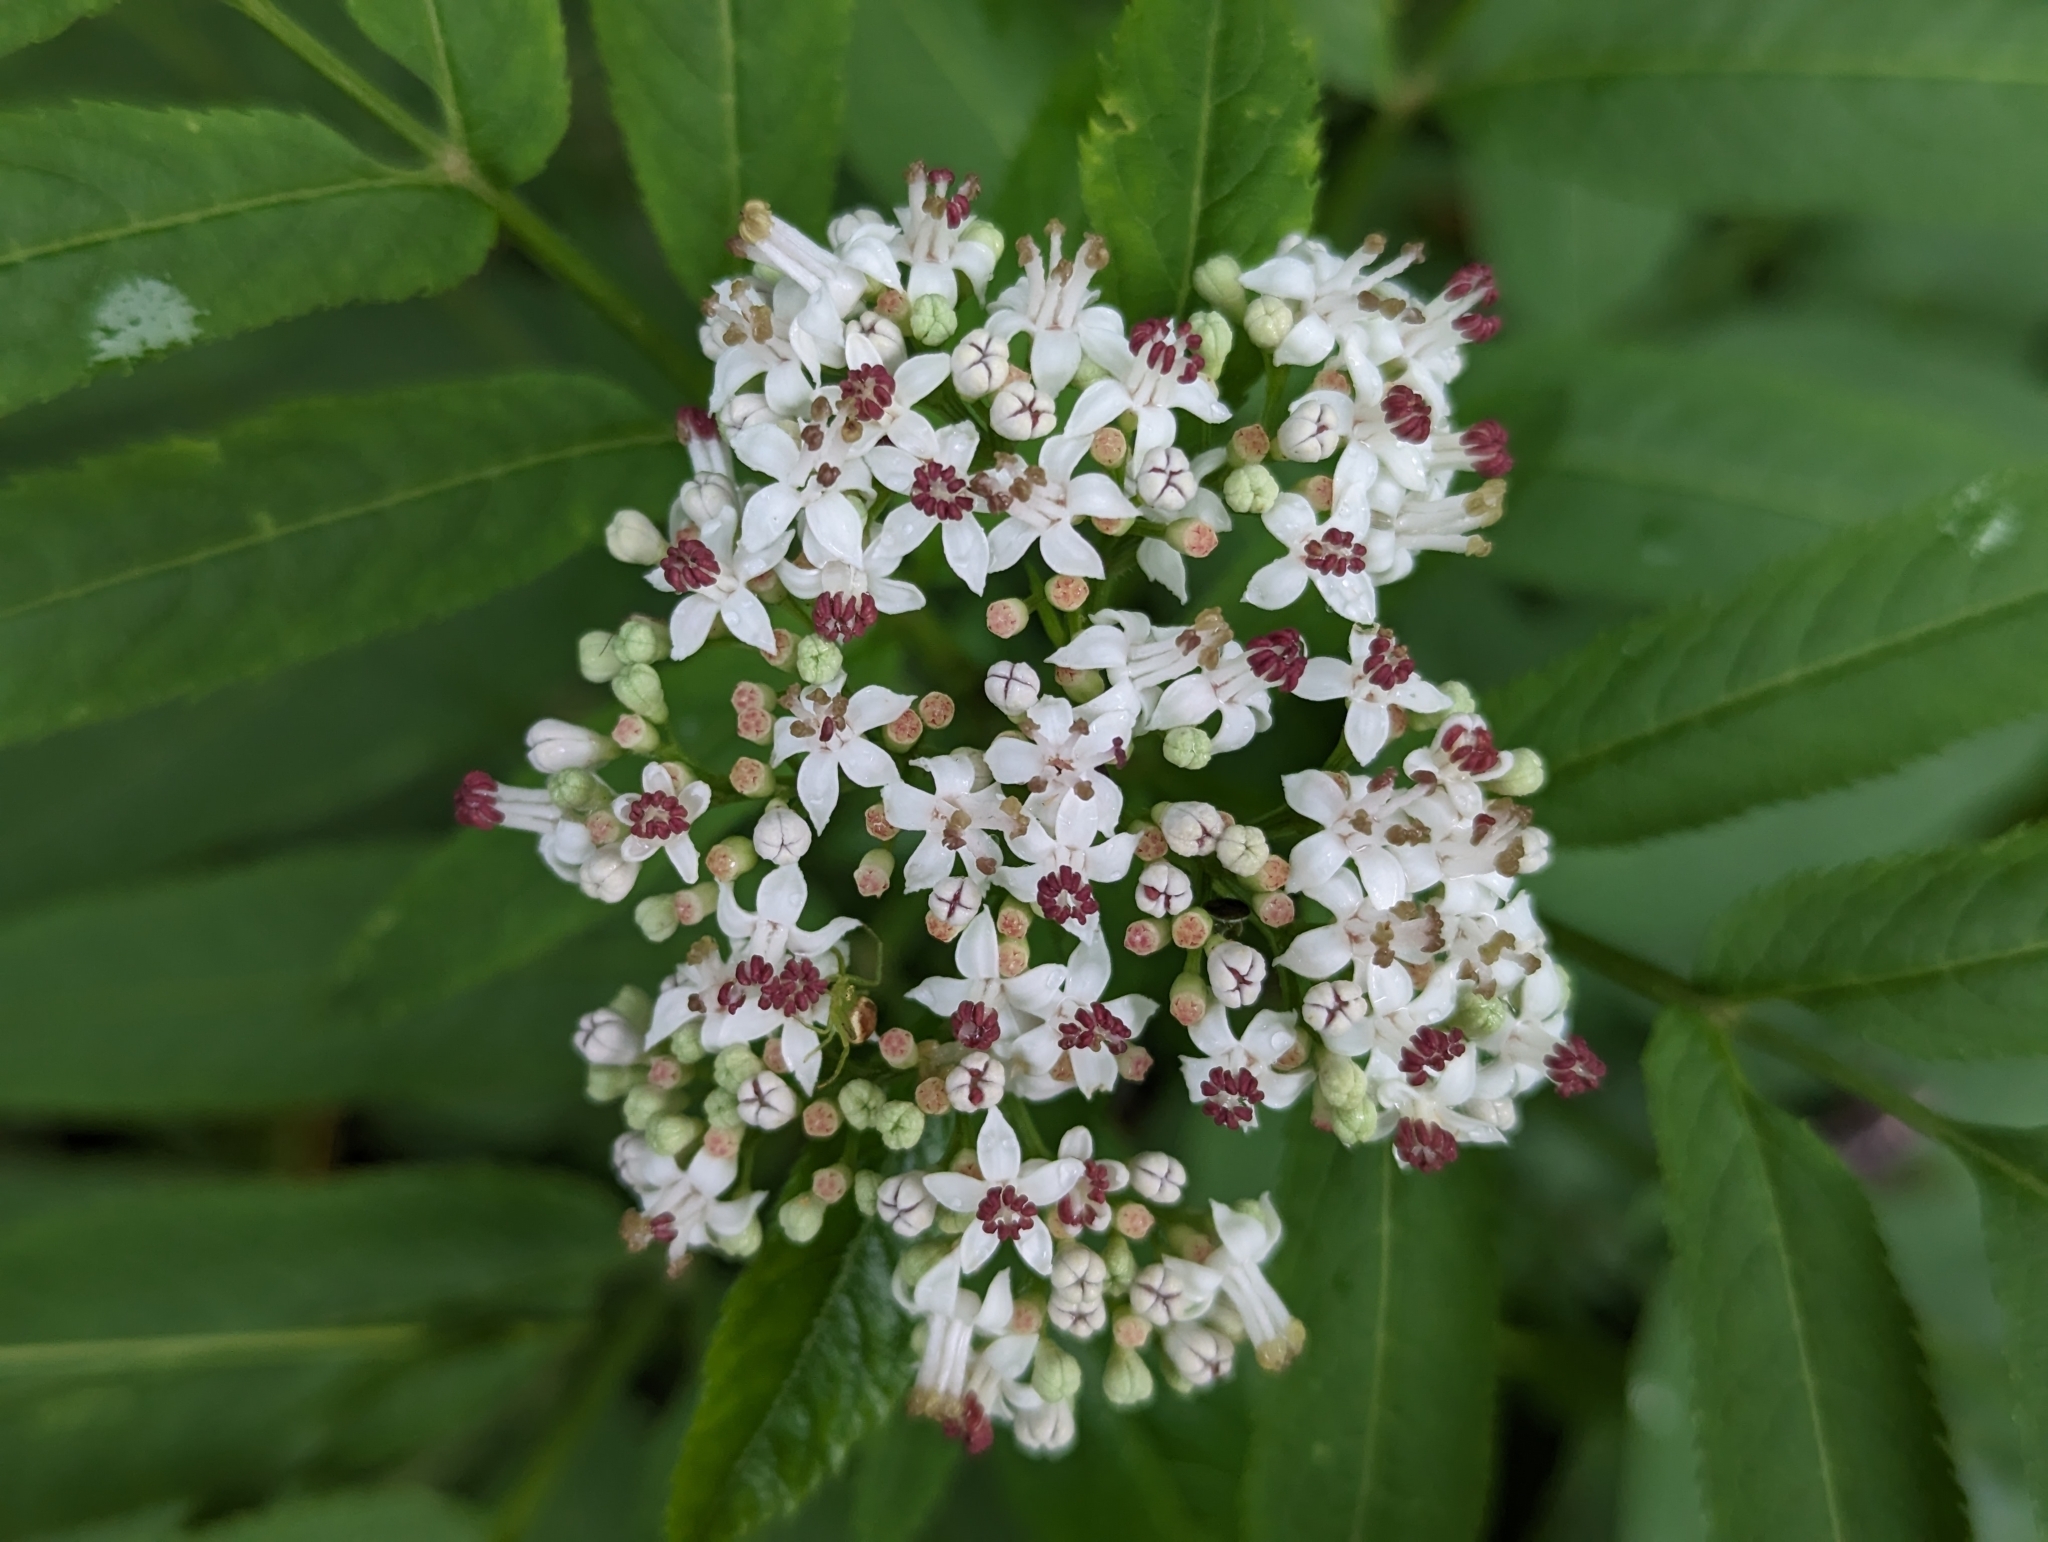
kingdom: Plantae
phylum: Tracheophyta
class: Magnoliopsida
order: Dipsacales
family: Viburnaceae
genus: Sambucus
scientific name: Sambucus ebulus
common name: Dwarf elder
